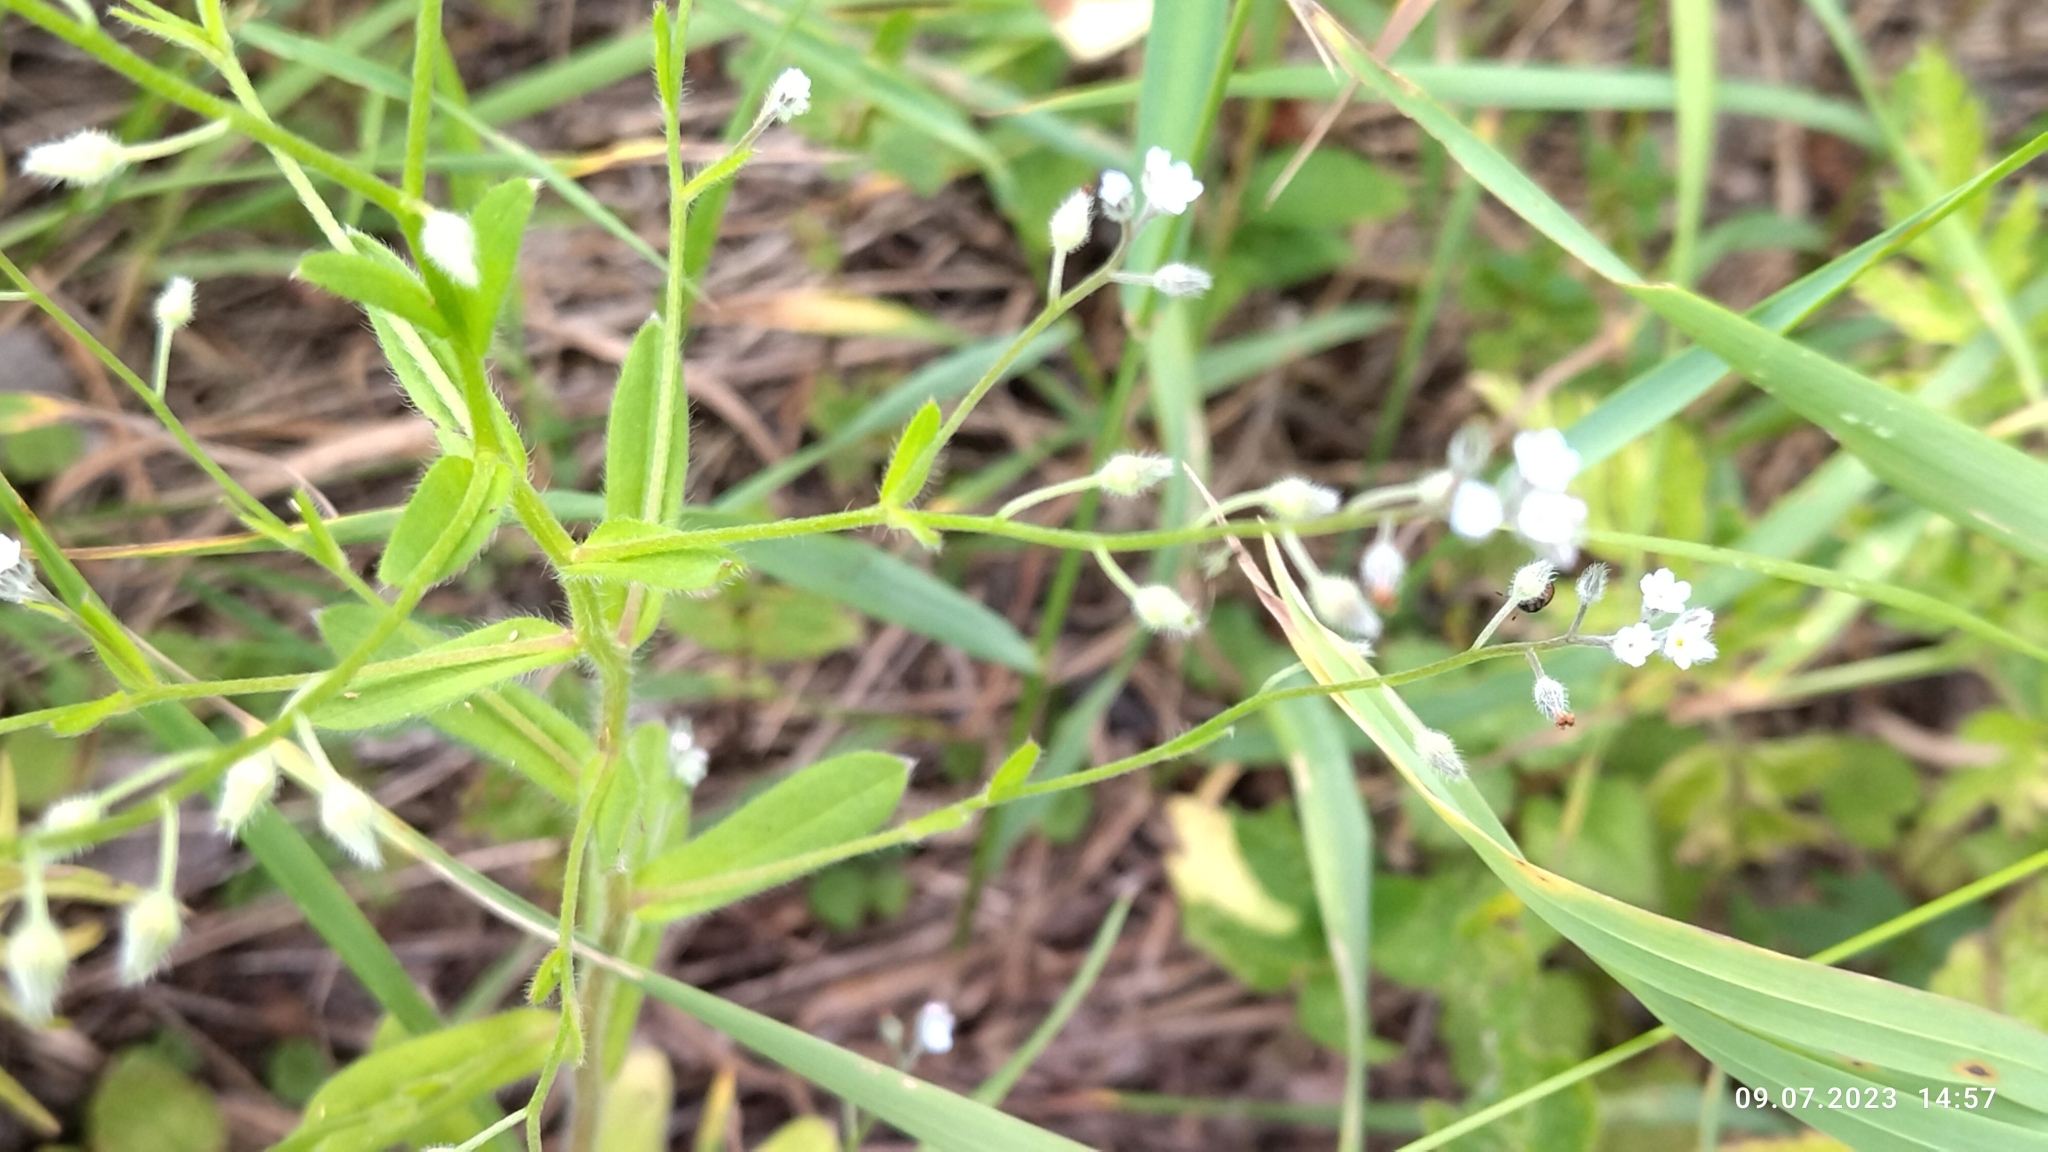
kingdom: Plantae
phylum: Tracheophyta
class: Magnoliopsida
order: Boraginales
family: Boraginaceae
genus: Myosotis
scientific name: Myosotis arvensis
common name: Field forget-me-not
